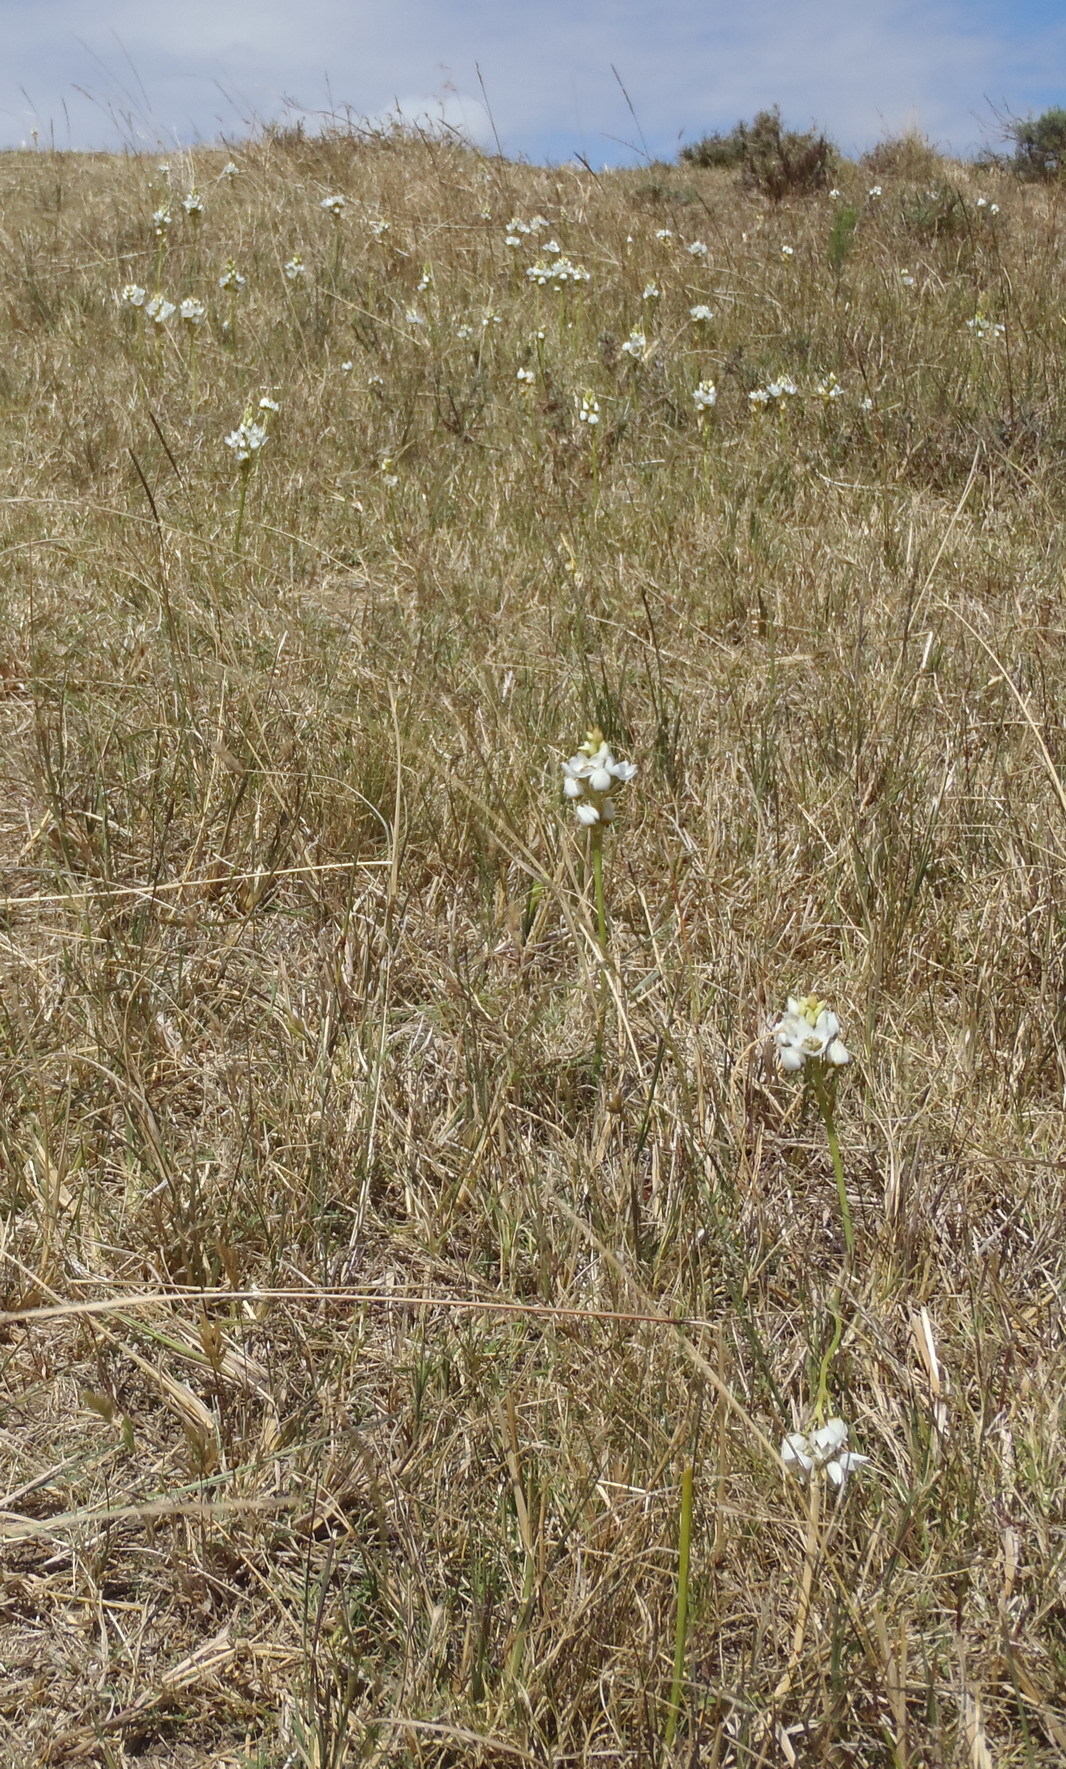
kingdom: Plantae
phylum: Tracheophyta
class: Liliopsida
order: Asparagales
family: Asparagaceae
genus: Ornithogalum
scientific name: Ornithogalum dubium
